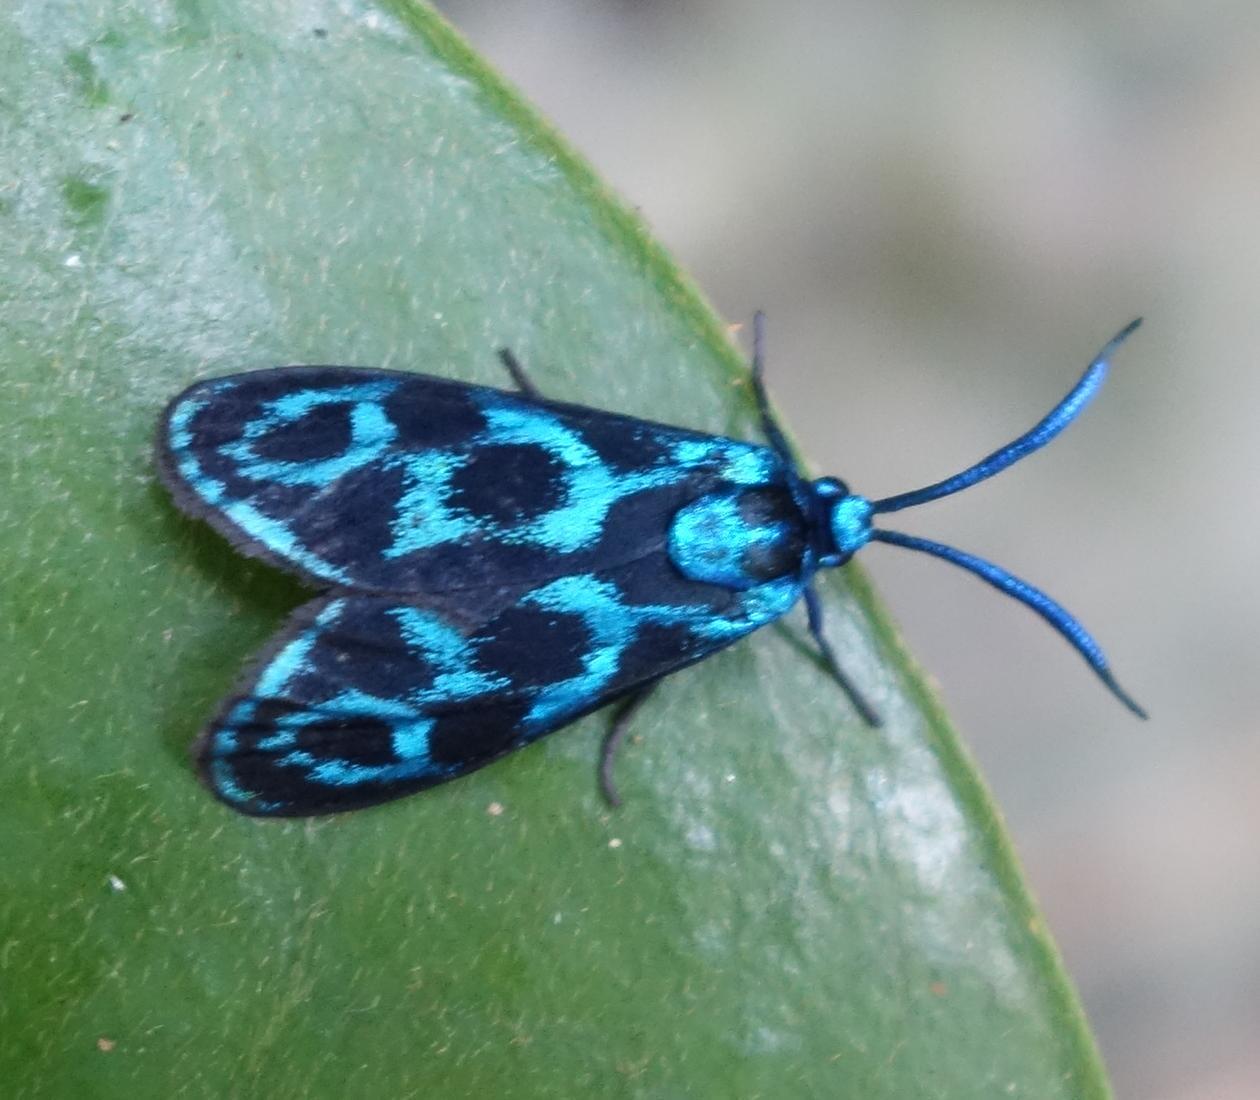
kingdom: Animalia
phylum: Arthropoda
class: Insecta
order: Lepidoptera
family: Zygaenidae
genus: Clelea
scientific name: Clelea nigroviridis
